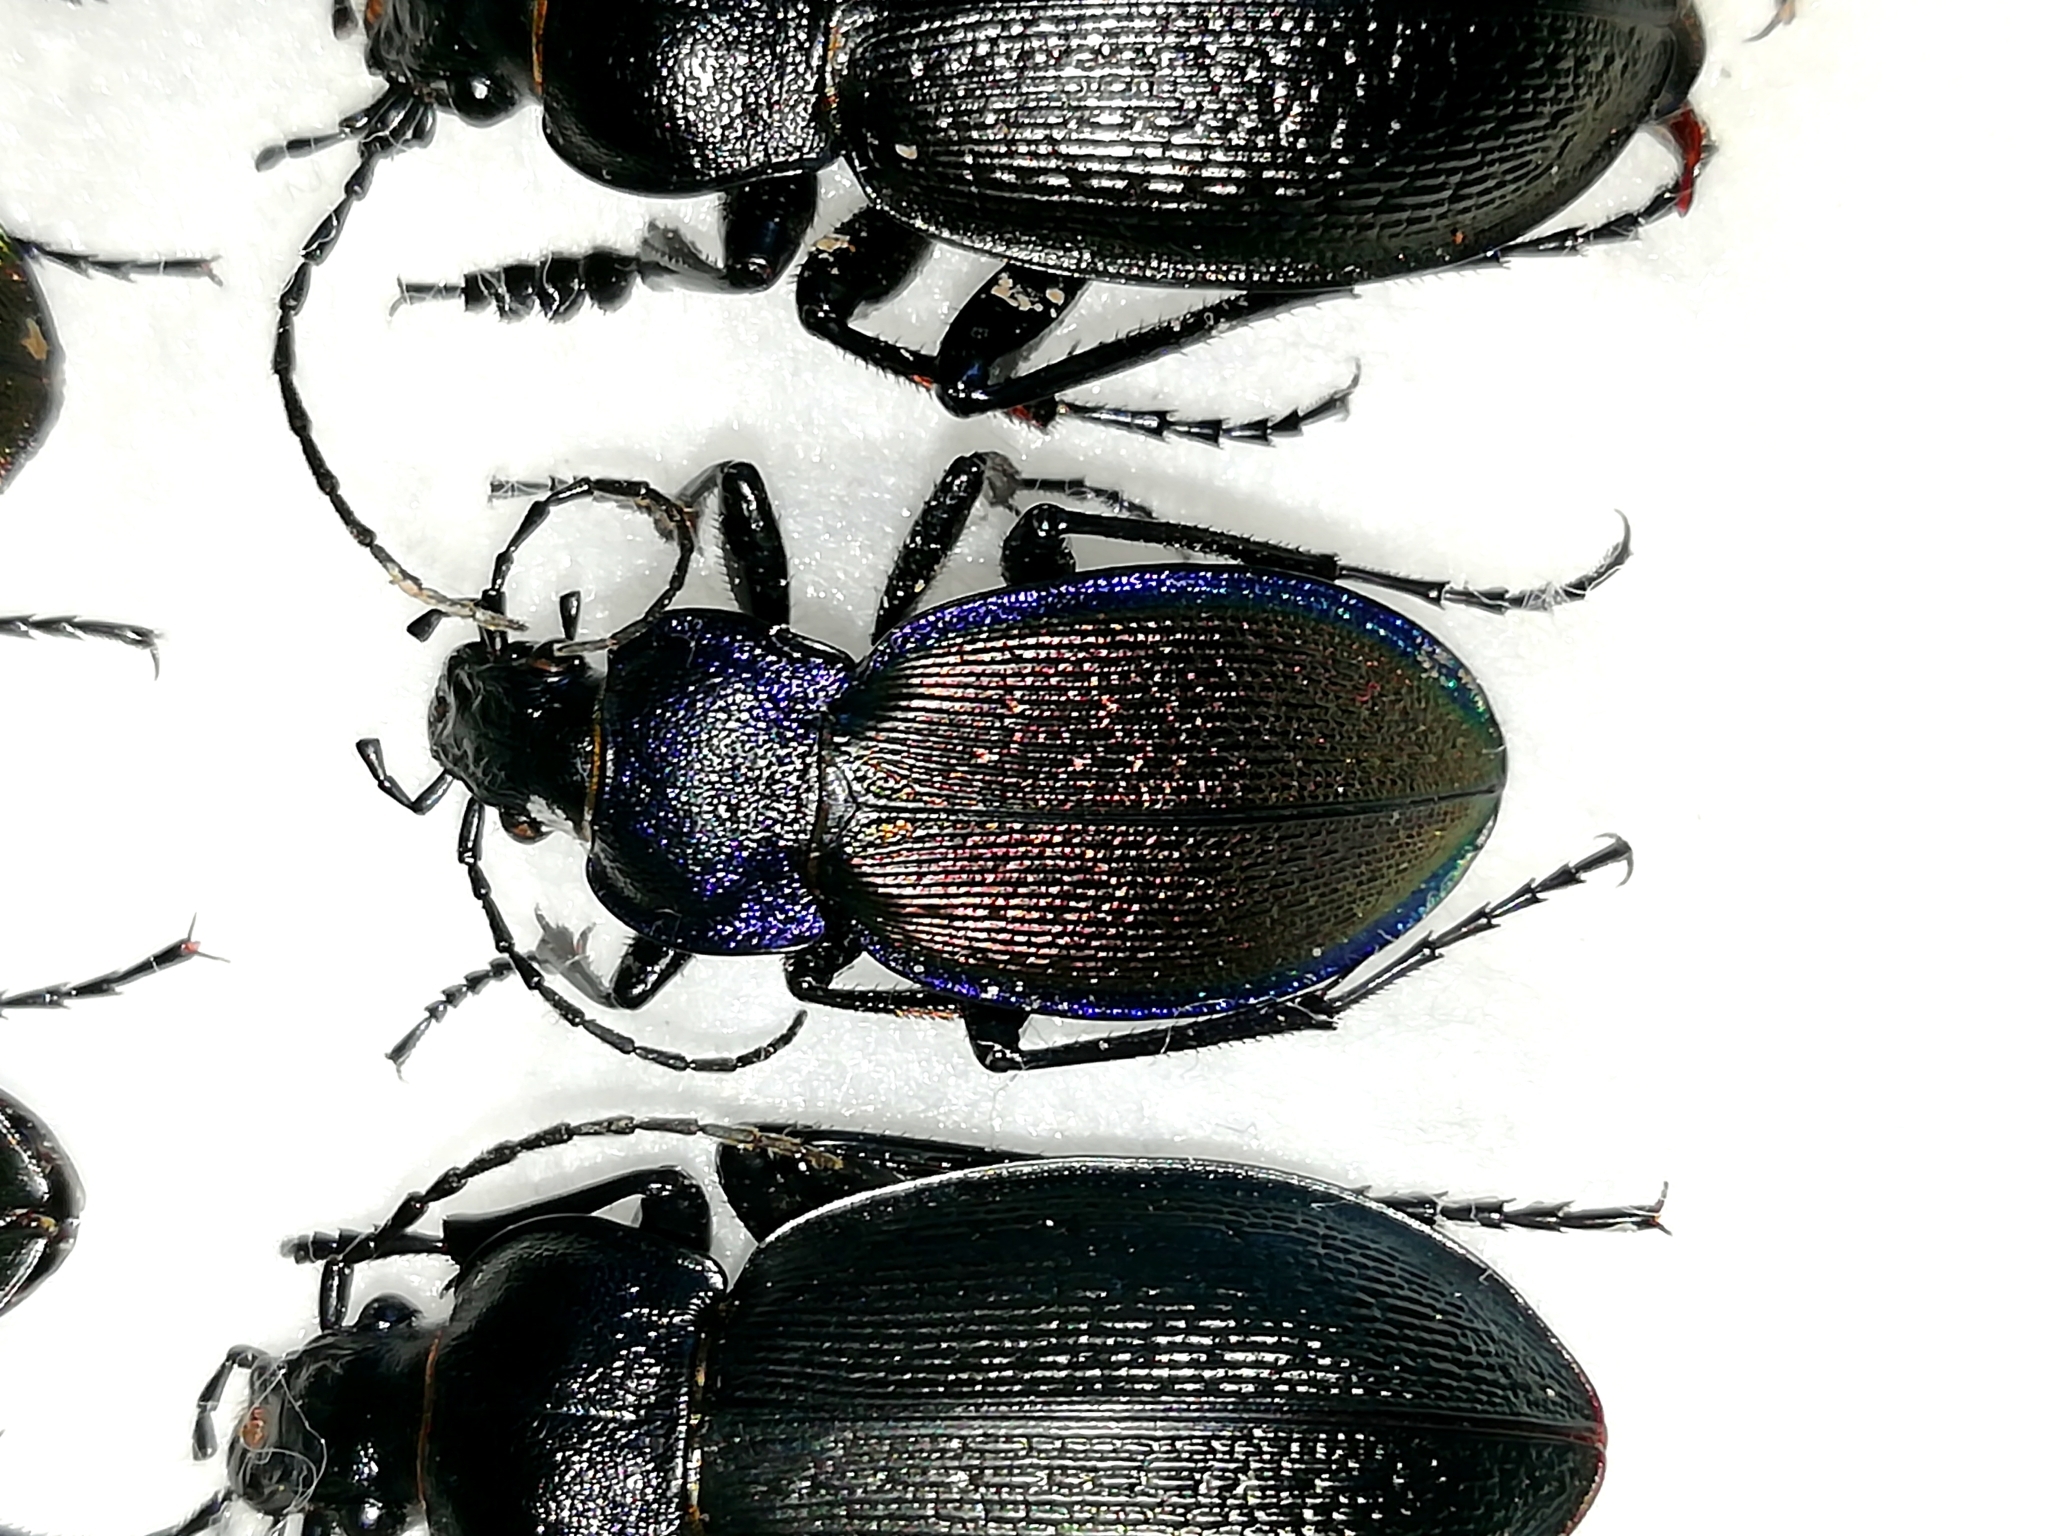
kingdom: Animalia
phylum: Arthropoda
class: Insecta
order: Coleoptera
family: Carabidae
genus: Carabus
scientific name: Carabus regalis
